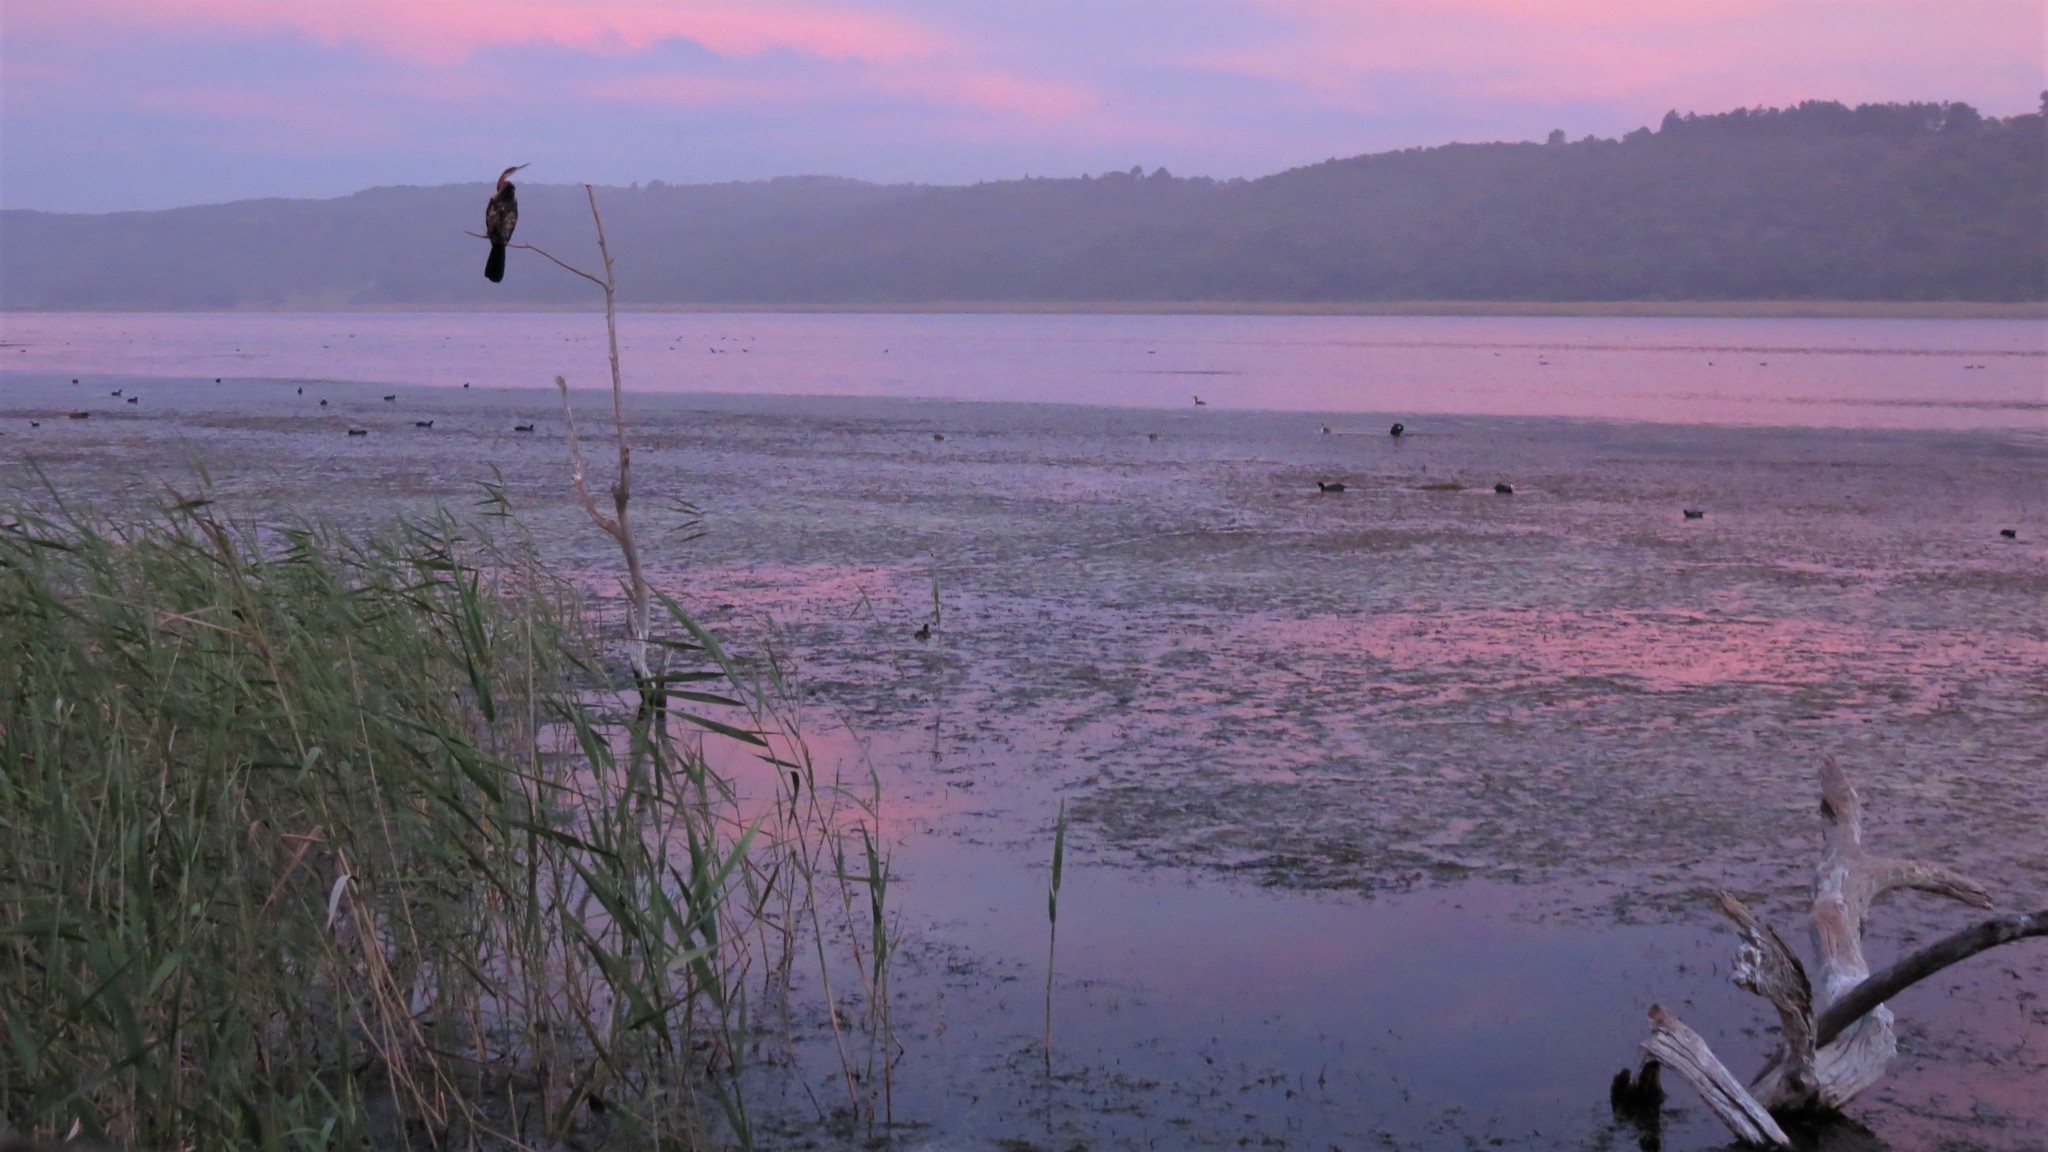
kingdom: Animalia
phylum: Chordata
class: Aves
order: Suliformes
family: Anhingidae
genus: Anhinga
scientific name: Anhinga rufa
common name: African darter
